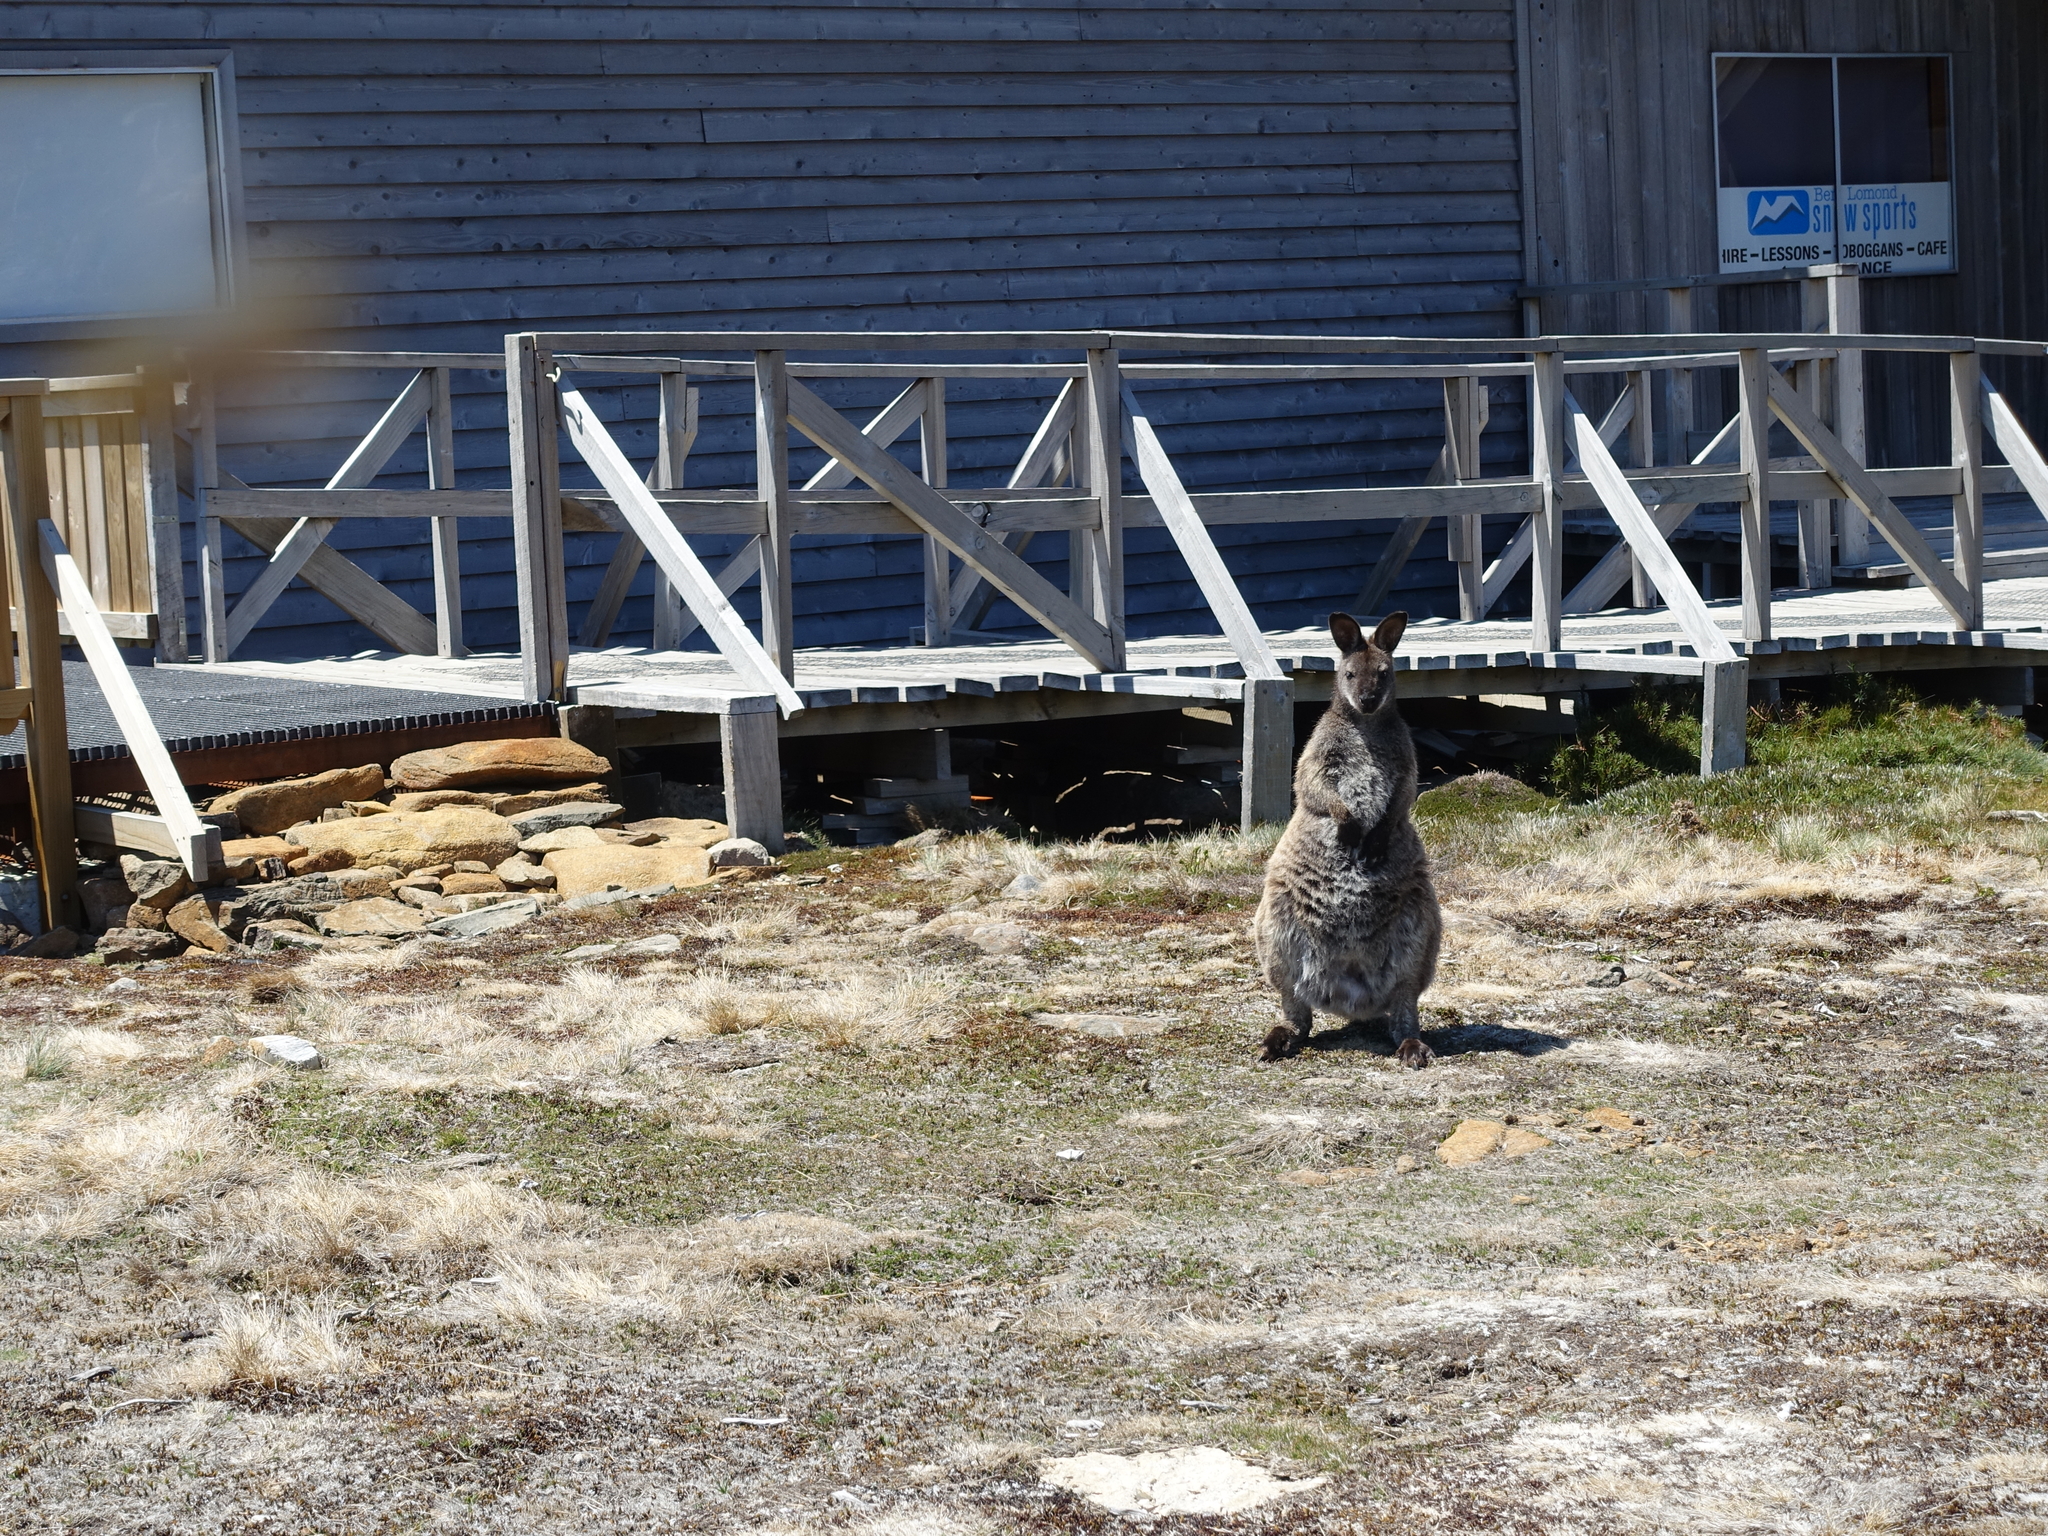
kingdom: Animalia
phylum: Chordata
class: Mammalia
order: Diprotodontia
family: Macropodidae
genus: Notamacropus
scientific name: Notamacropus rufogriseus
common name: Red-necked wallaby
